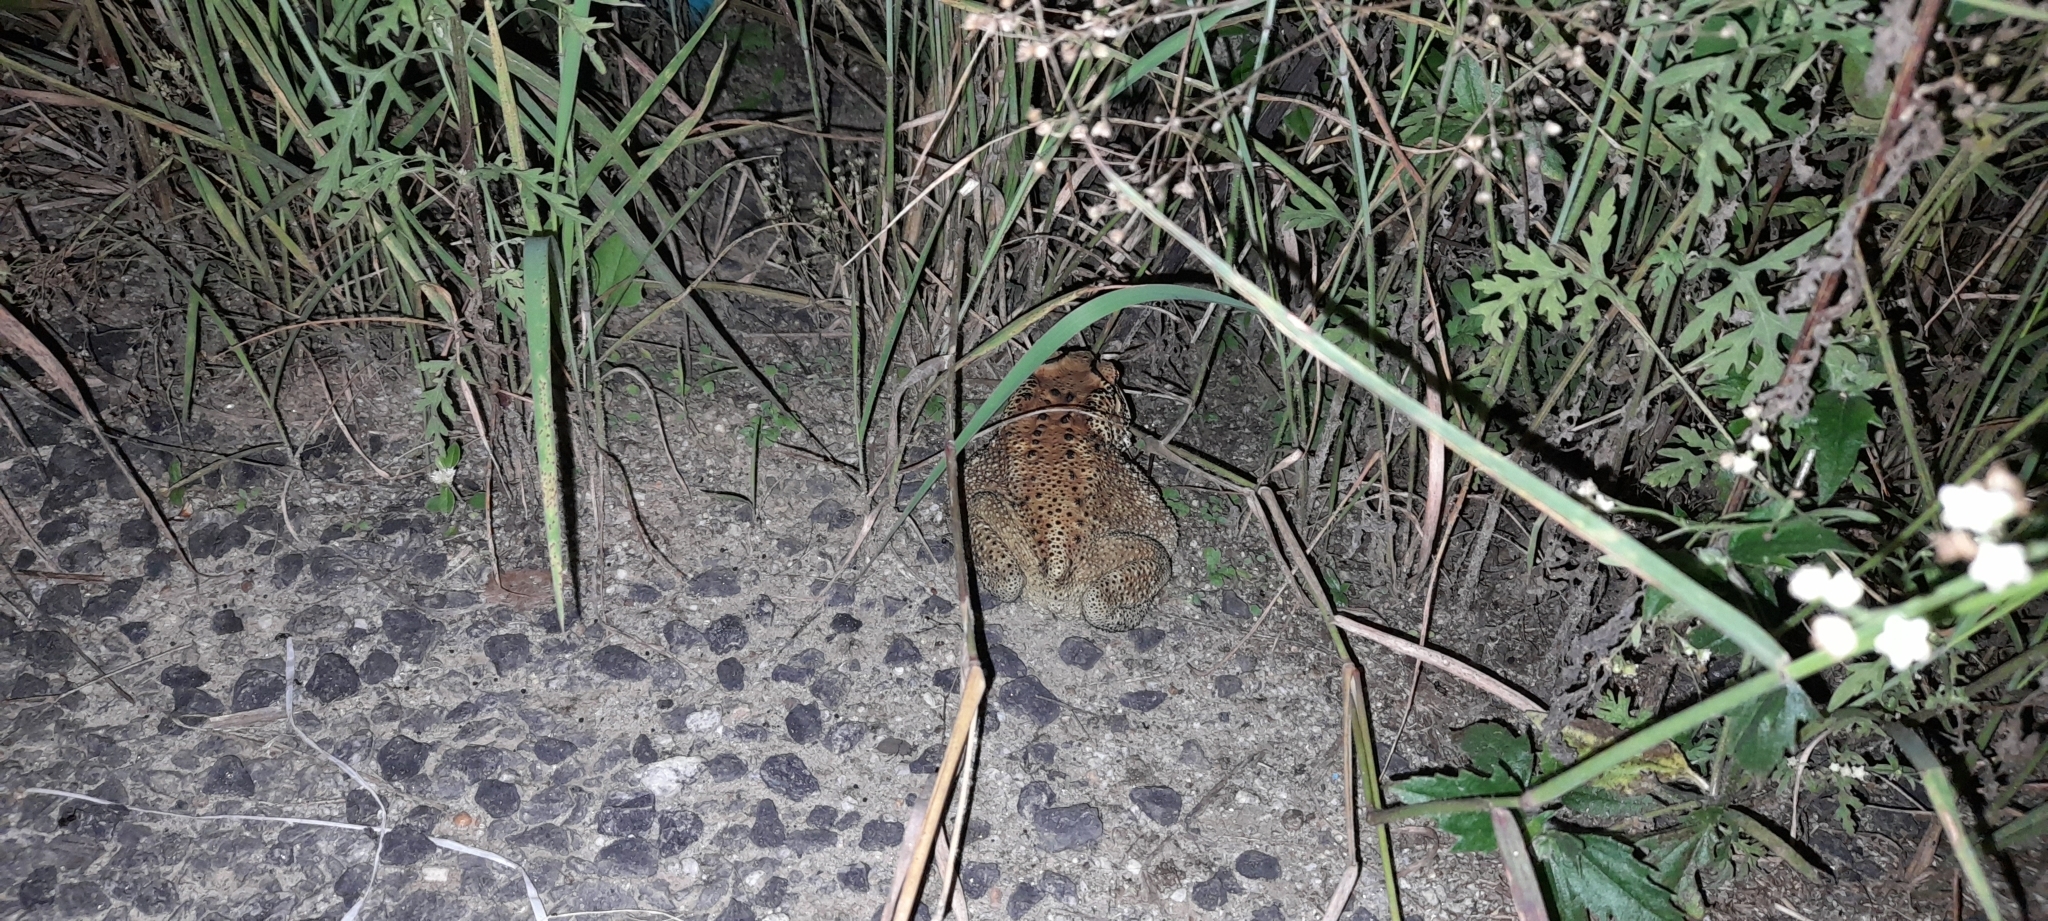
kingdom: Animalia
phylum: Chordata
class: Amphibia
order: Anura
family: Bufonidae
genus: Duttaphrynus
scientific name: Duttaphrynus melanostictus
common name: Common sunda toad
